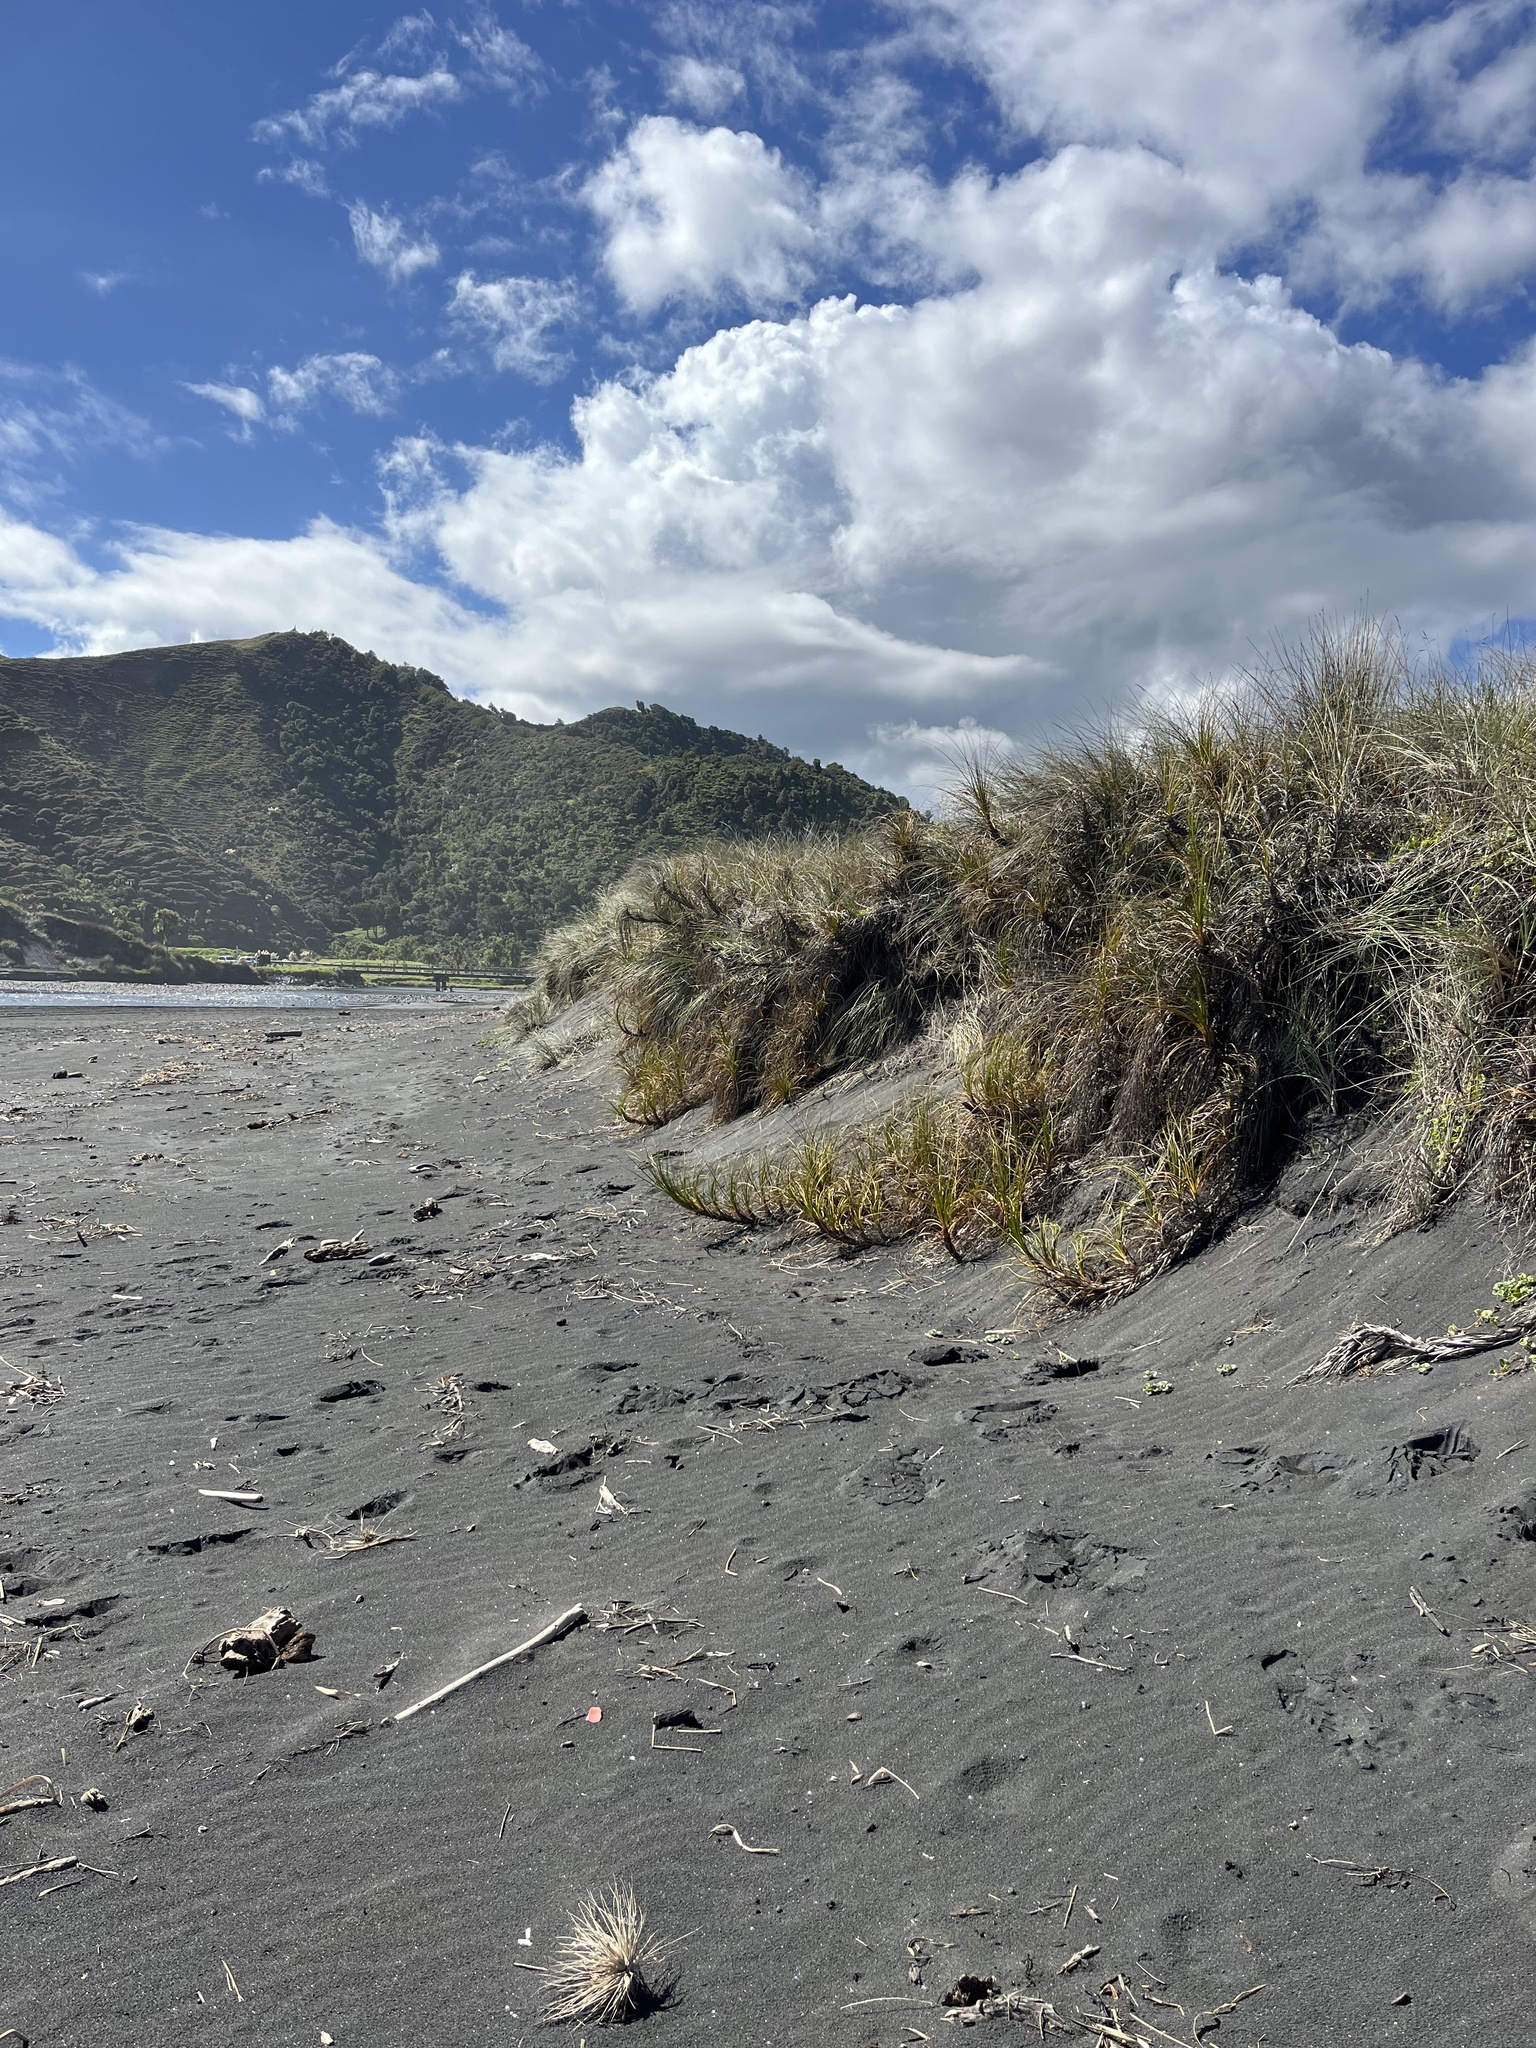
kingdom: Plantae
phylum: Tracheophyta
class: Liliopsida
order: Poales
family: Cyperaceae
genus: Ficinia
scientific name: Ficinia spiralis
